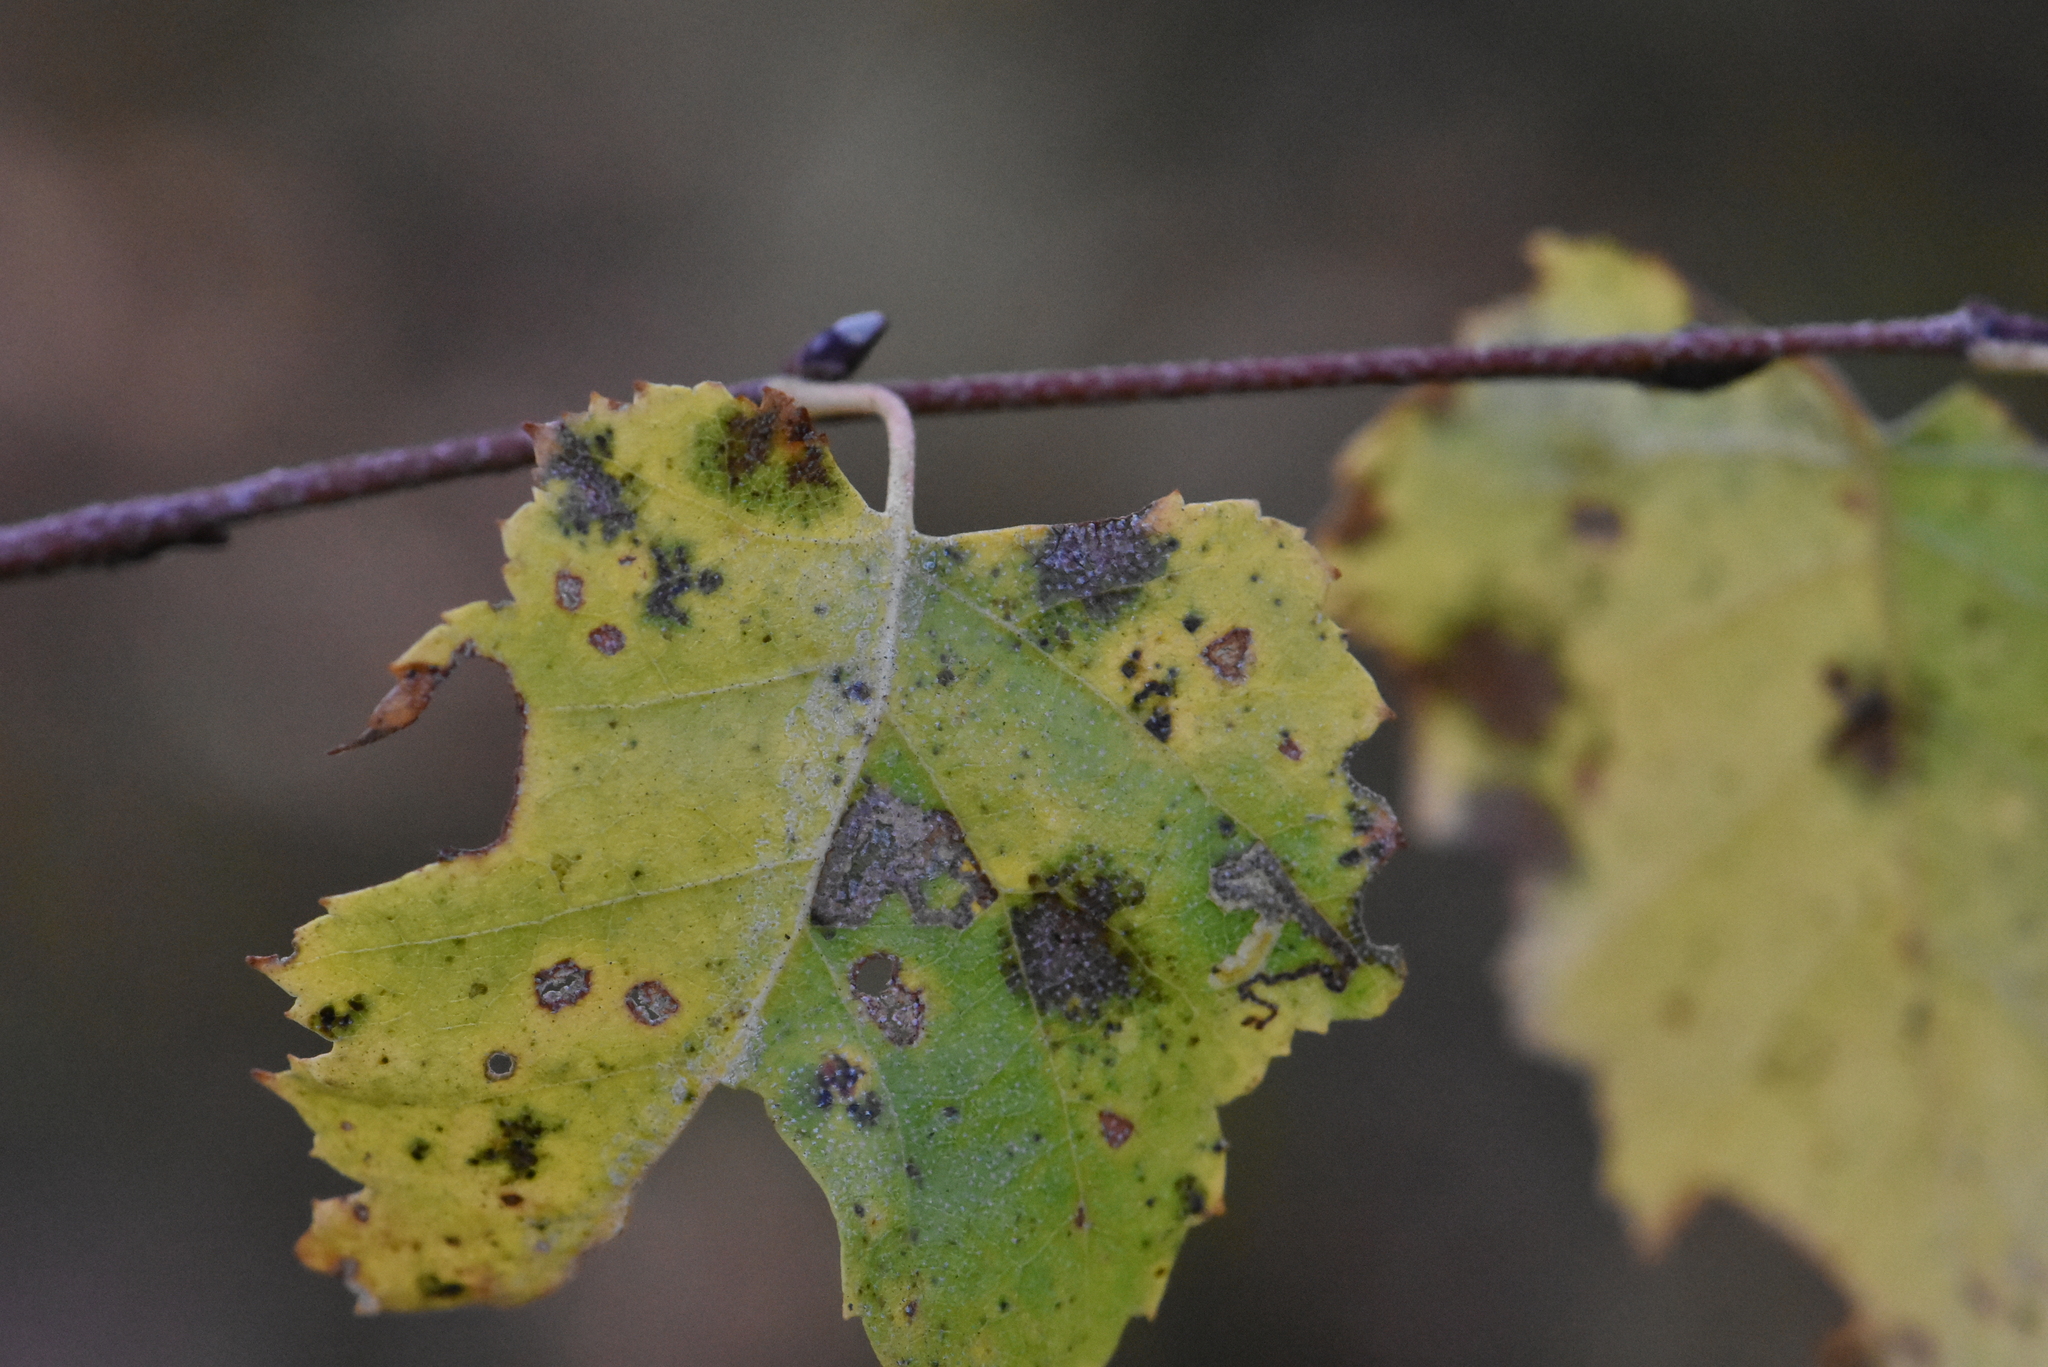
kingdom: Plantae
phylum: Tracheophyta
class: Magnoliopsida
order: Fagales
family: Betulaceae
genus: Betula
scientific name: Betula pendula
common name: Silver birch
